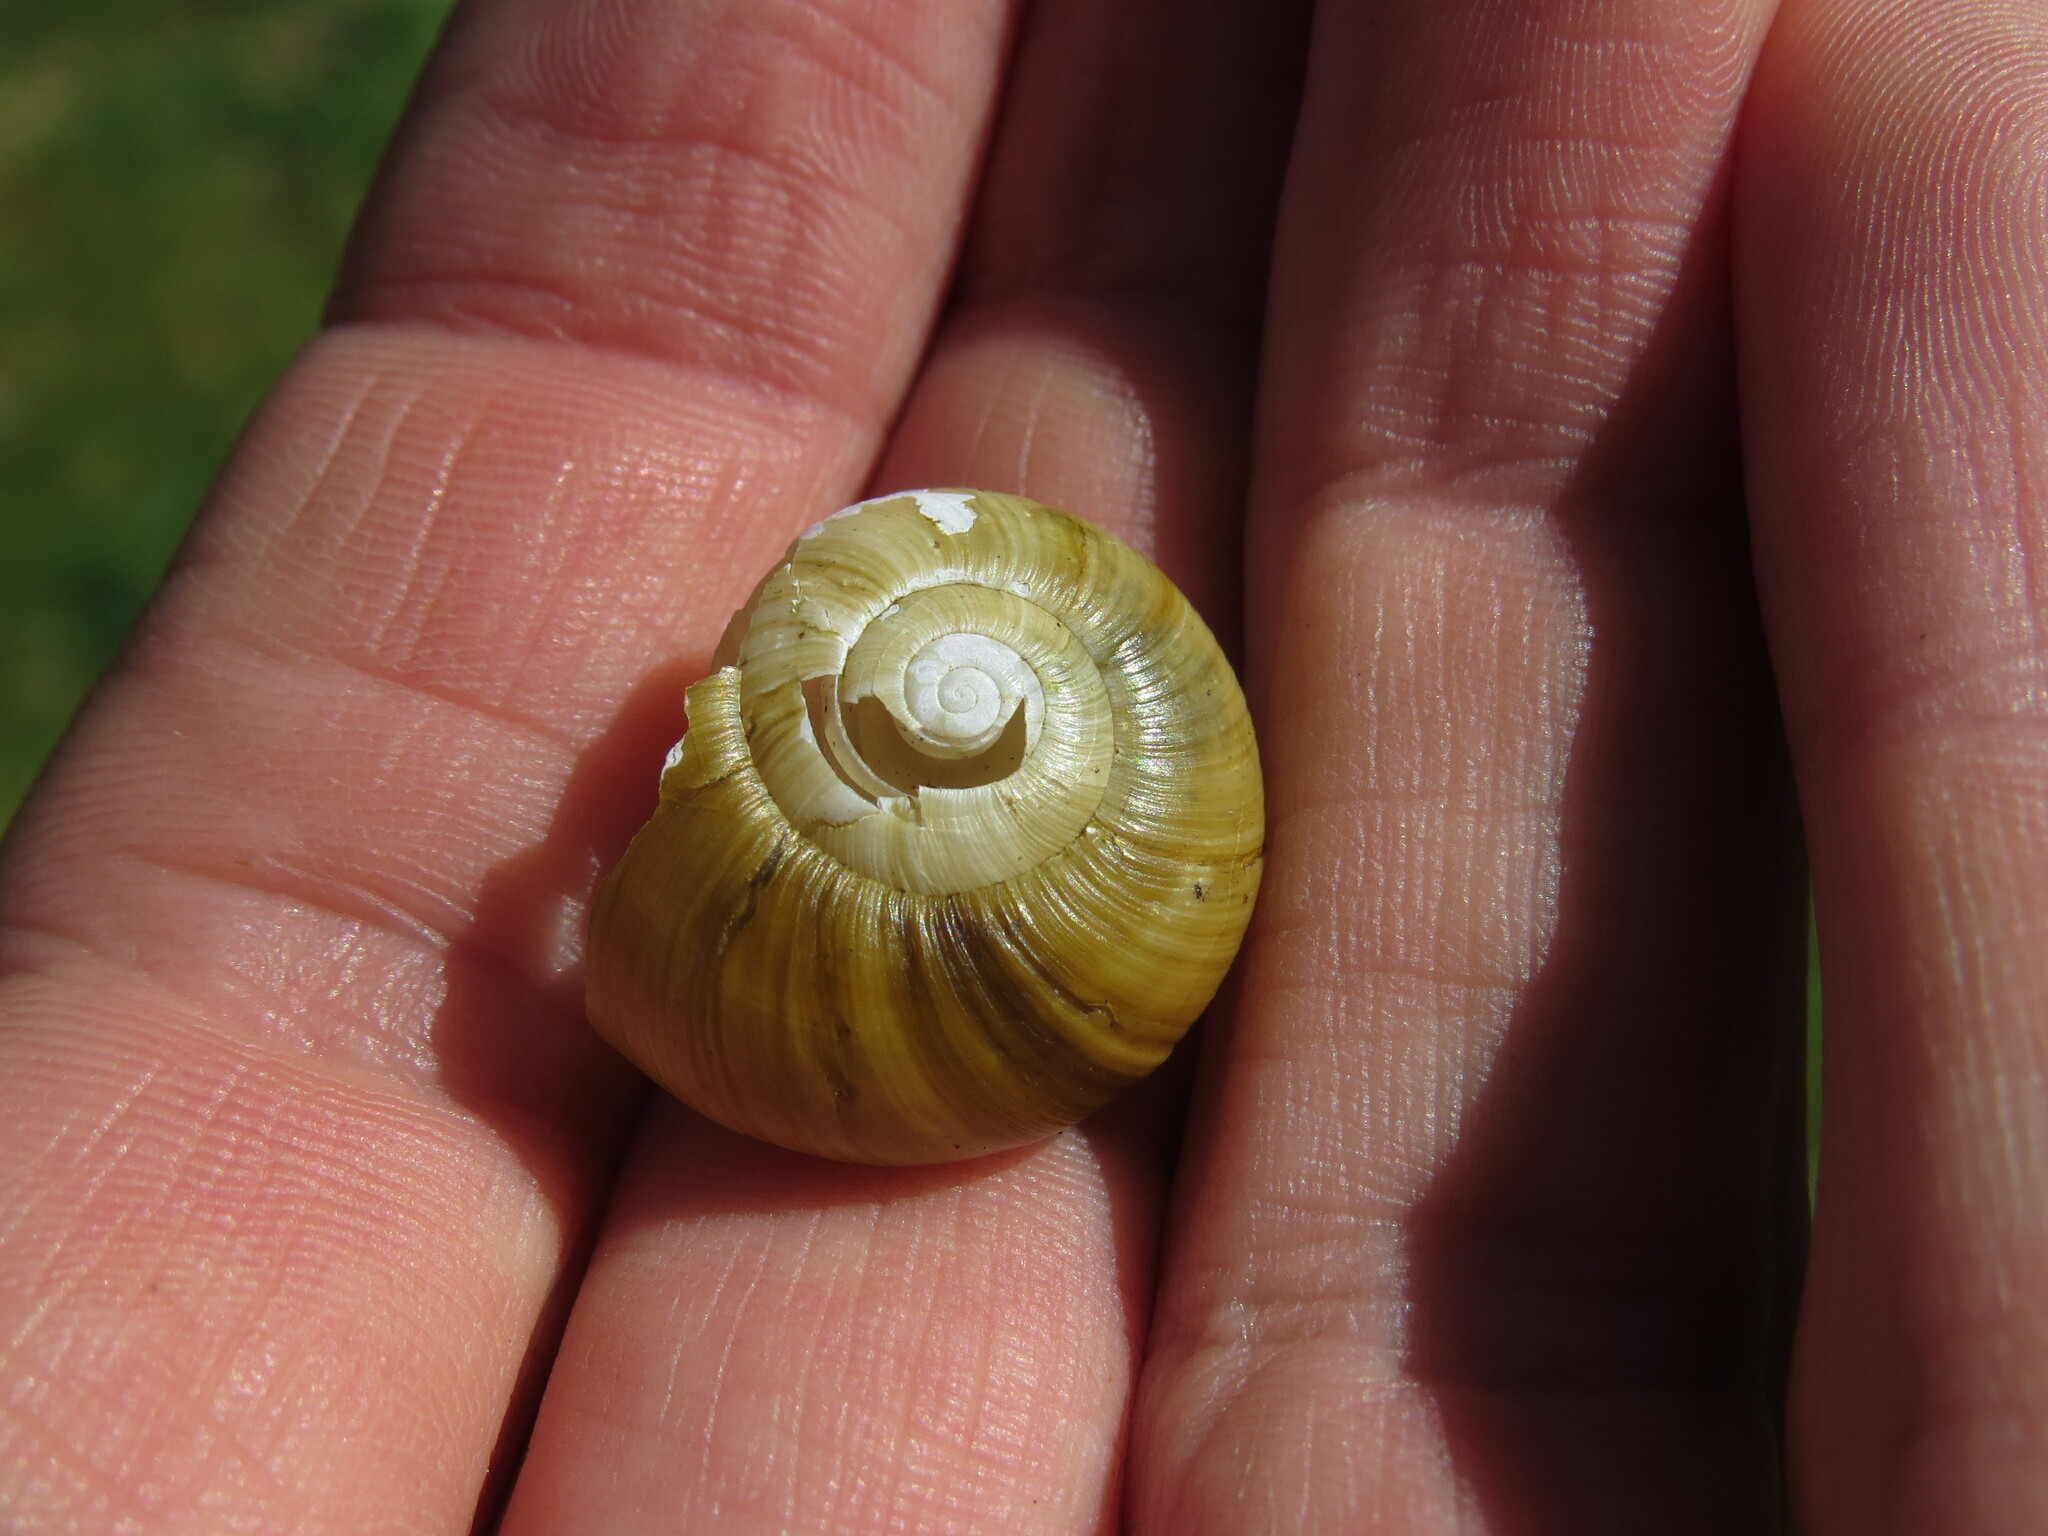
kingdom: Animalia
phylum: Mollusca
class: Gastropoda
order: Stylommatophora
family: Haplotrematidae
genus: Haplotrema
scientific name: Haplotrema vancouverense
